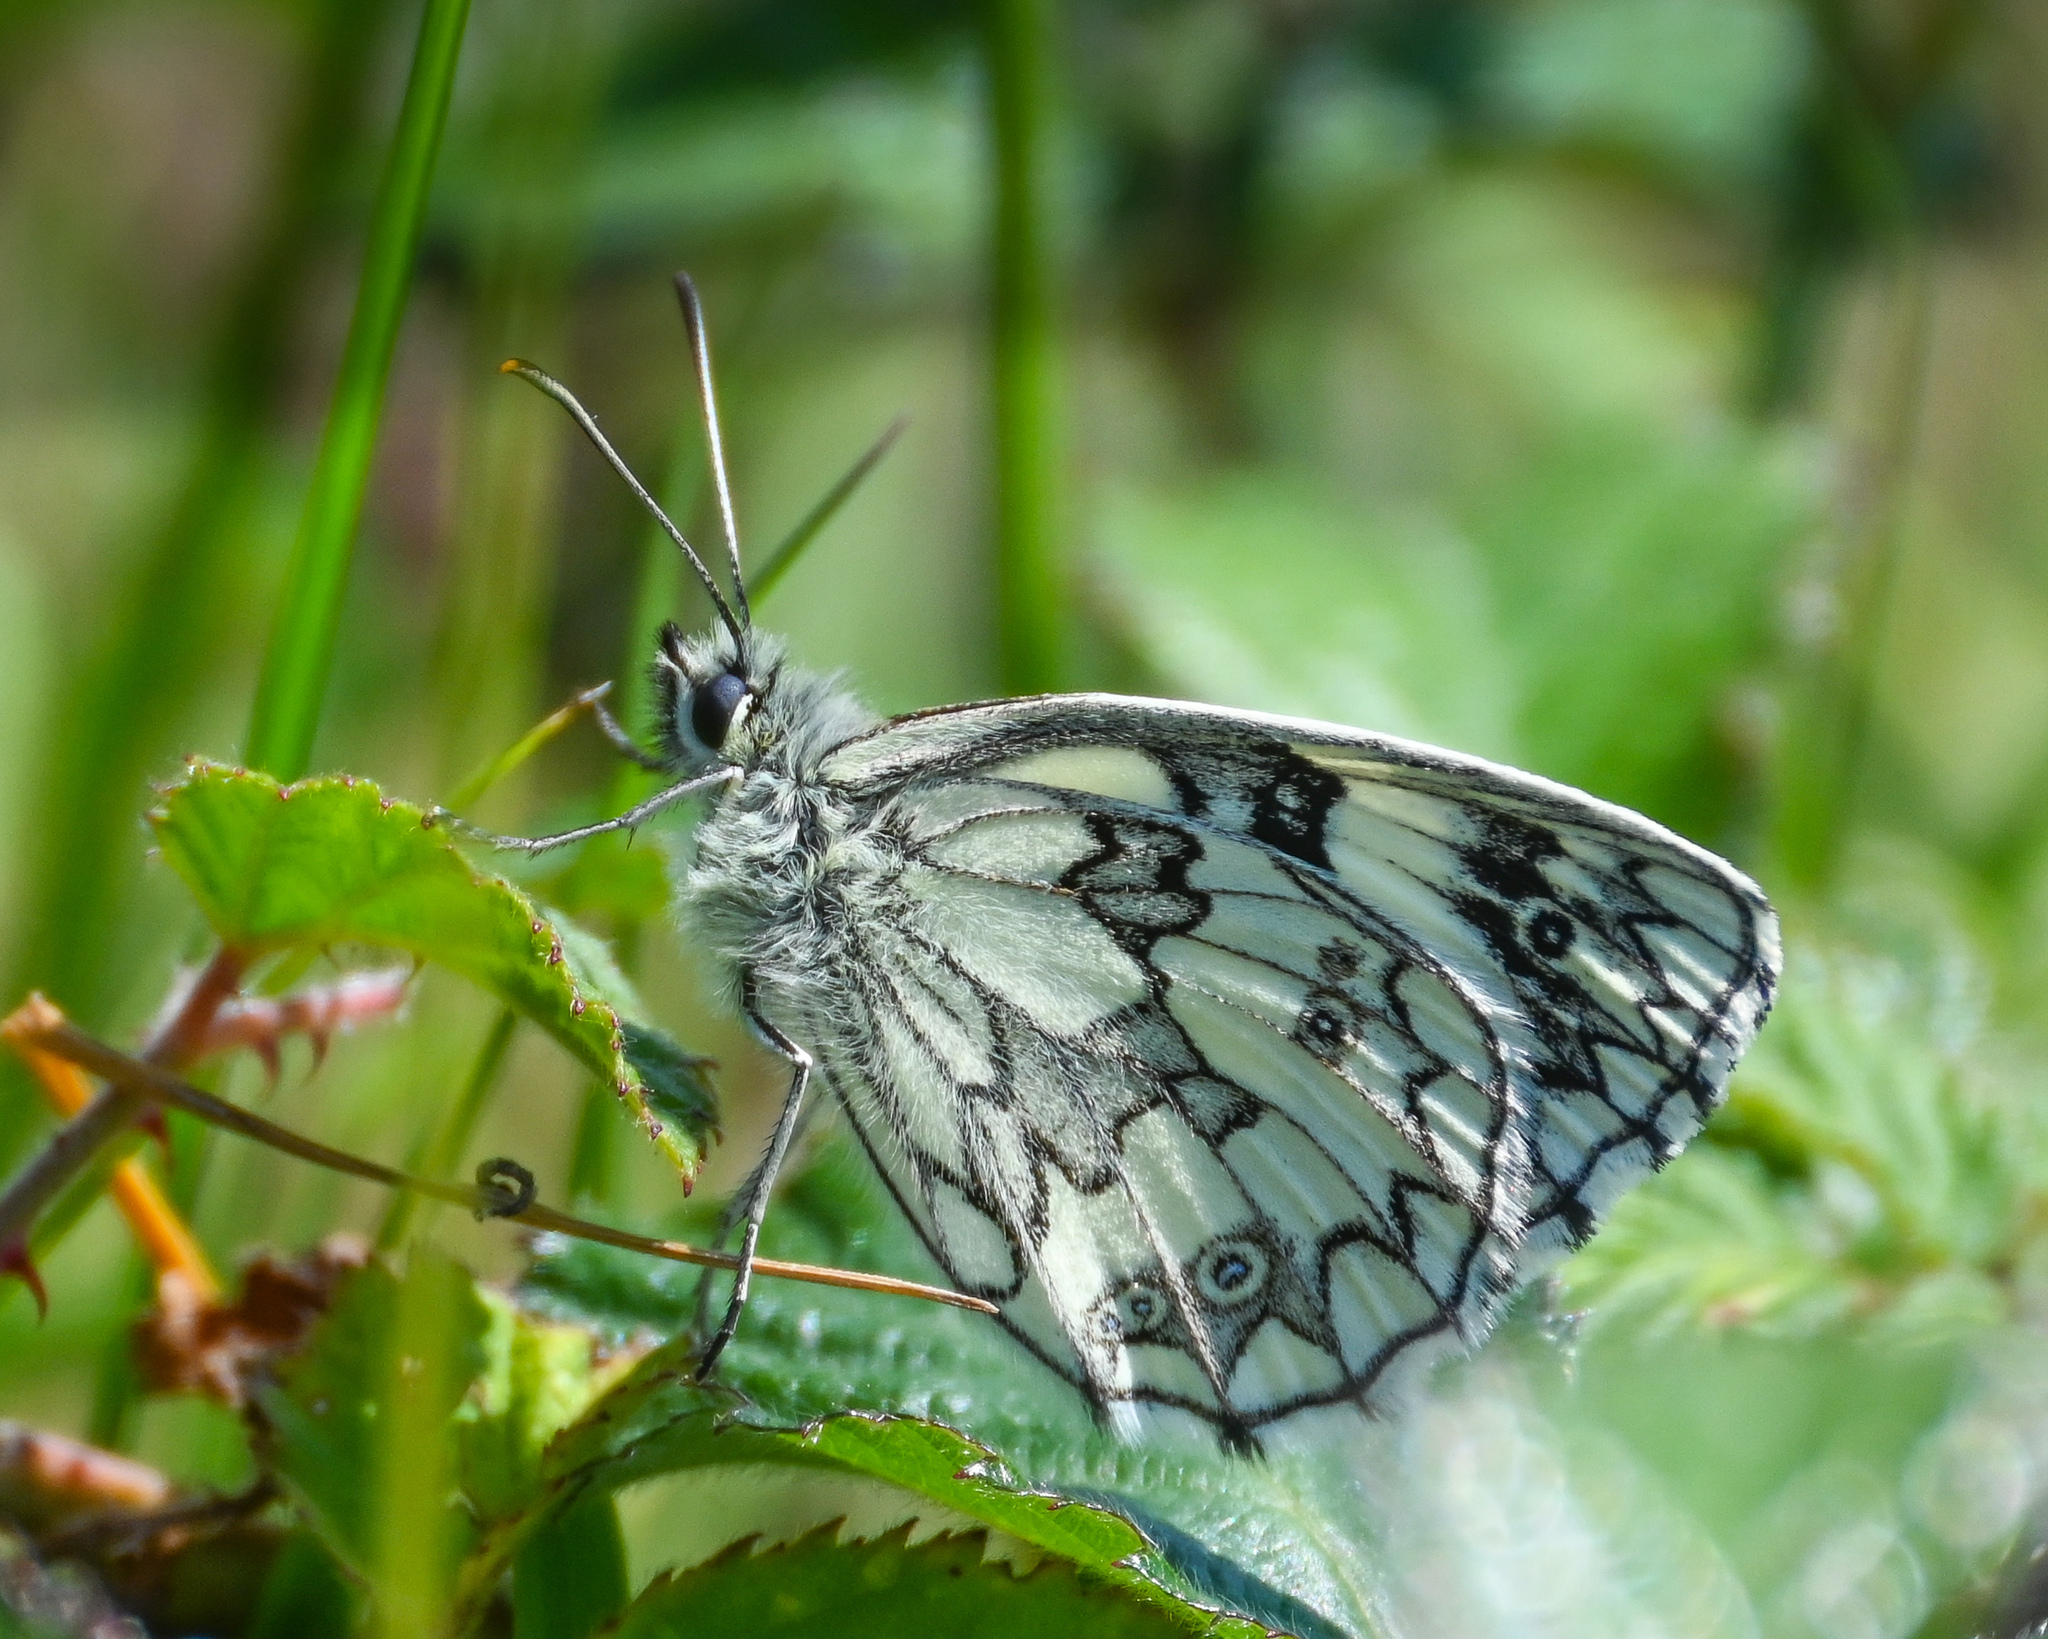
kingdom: Animalia
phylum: Arthropoda
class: Insecta
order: Lepidoptera
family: Nymphalidae
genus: Melanargia
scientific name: Melanargia galathea
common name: Marbled white
